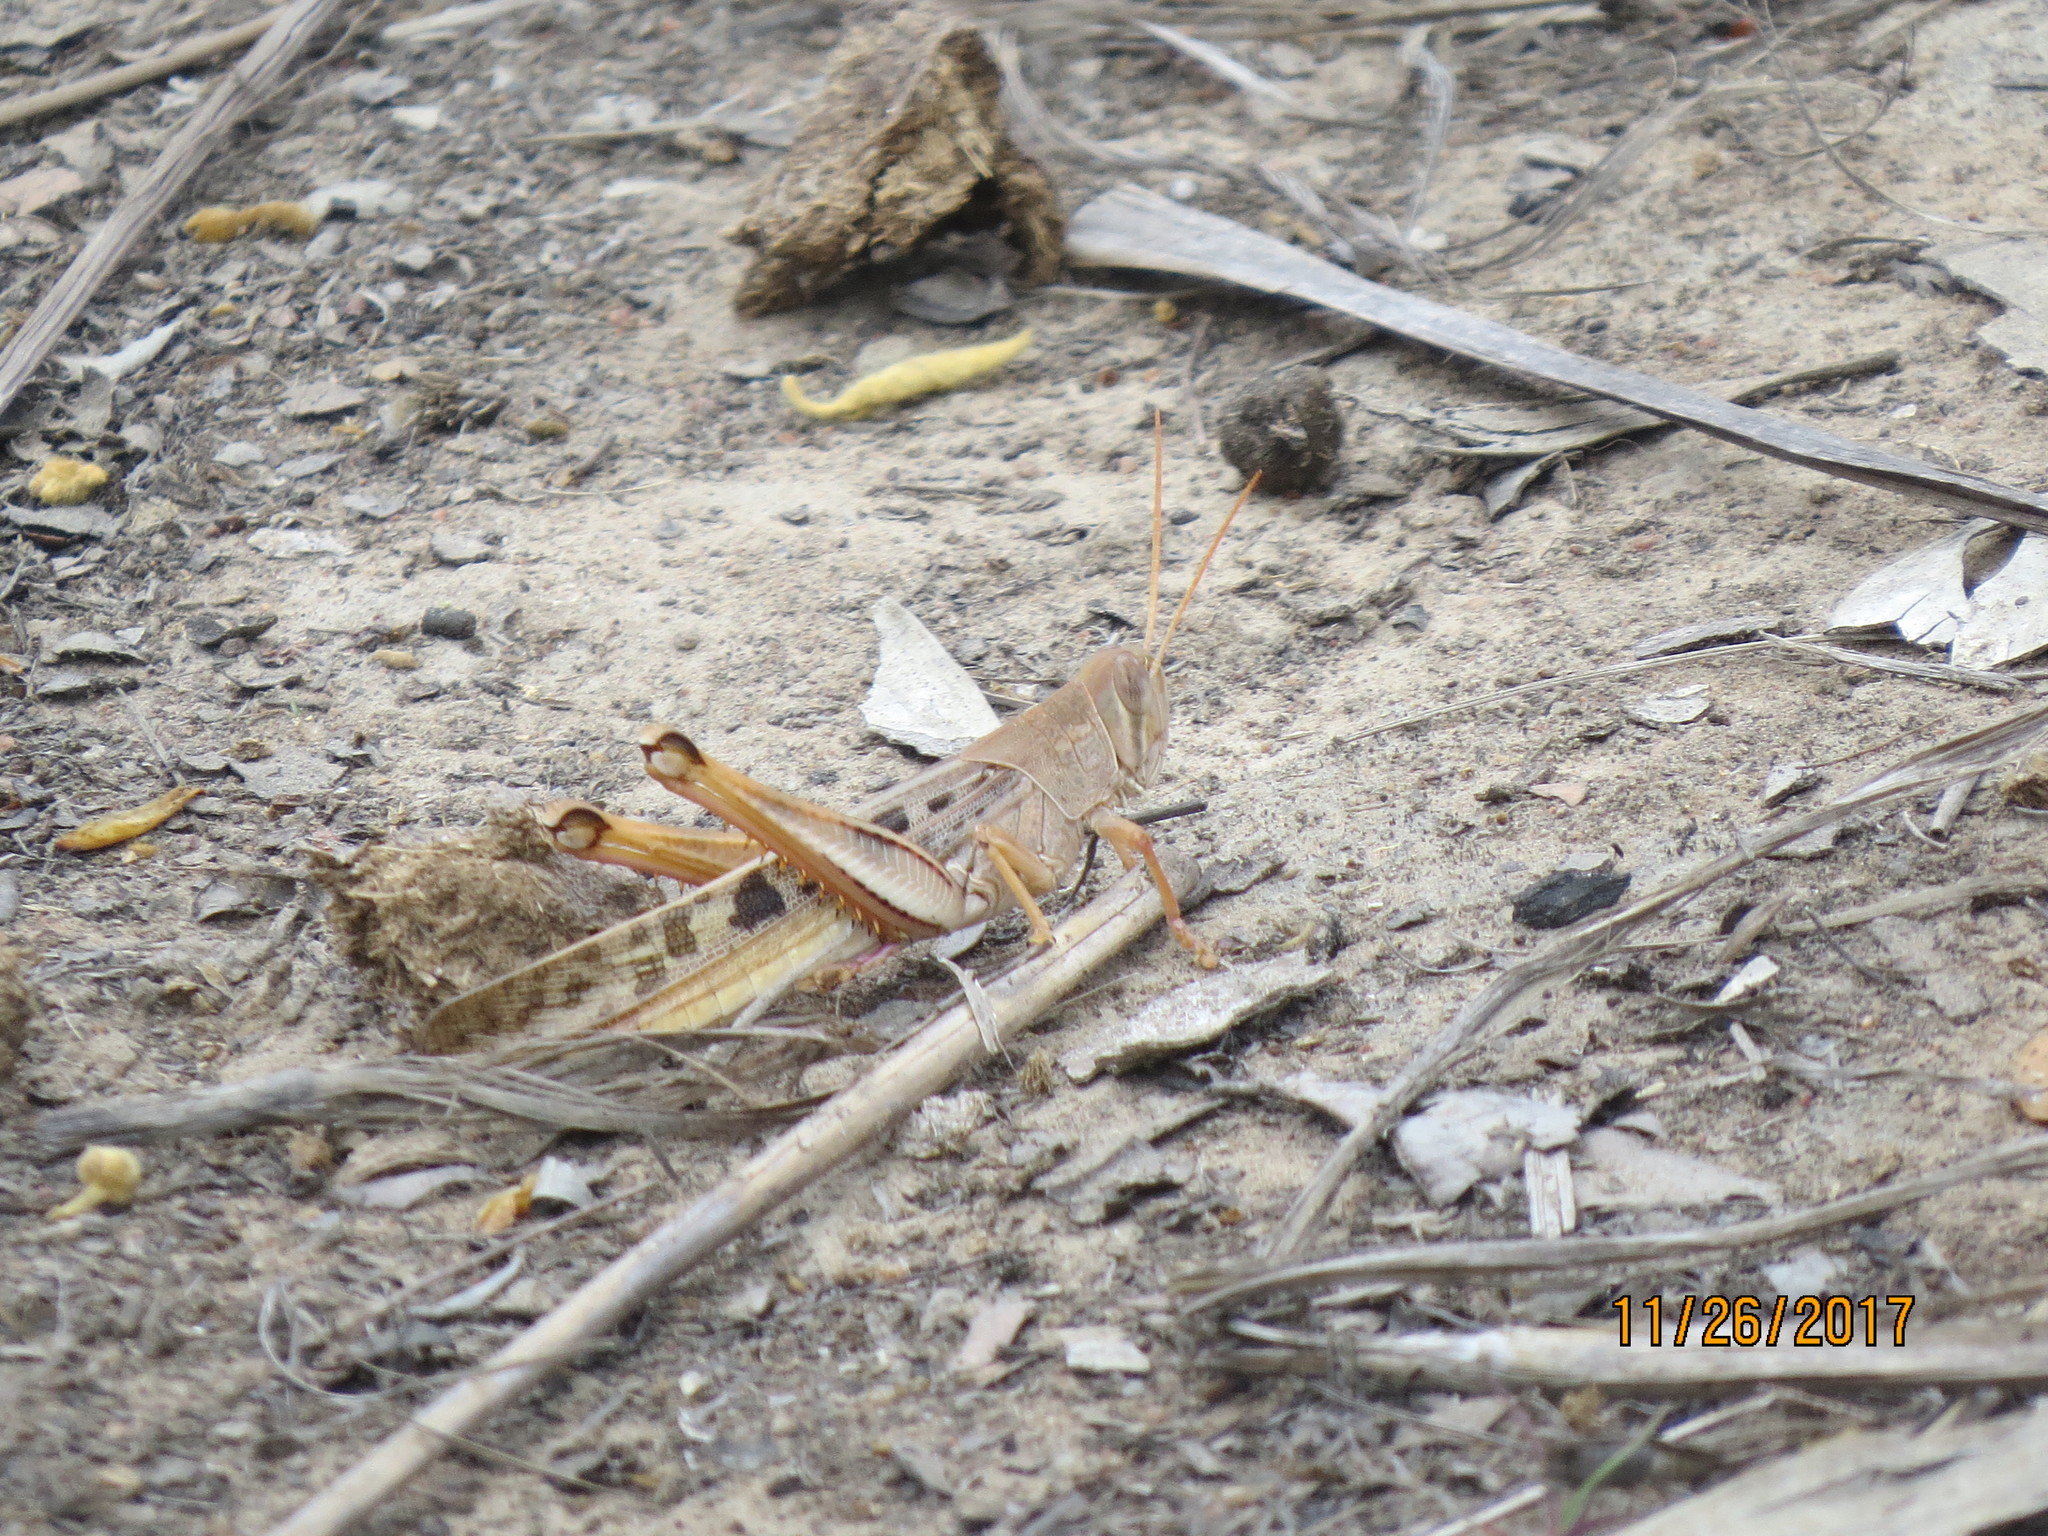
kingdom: Animalia
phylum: Arthropoda
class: Insecta
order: Orthoptera
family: Acrididae
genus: Austracris
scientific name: Austracris basalis
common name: Spotted spur-throated locust
